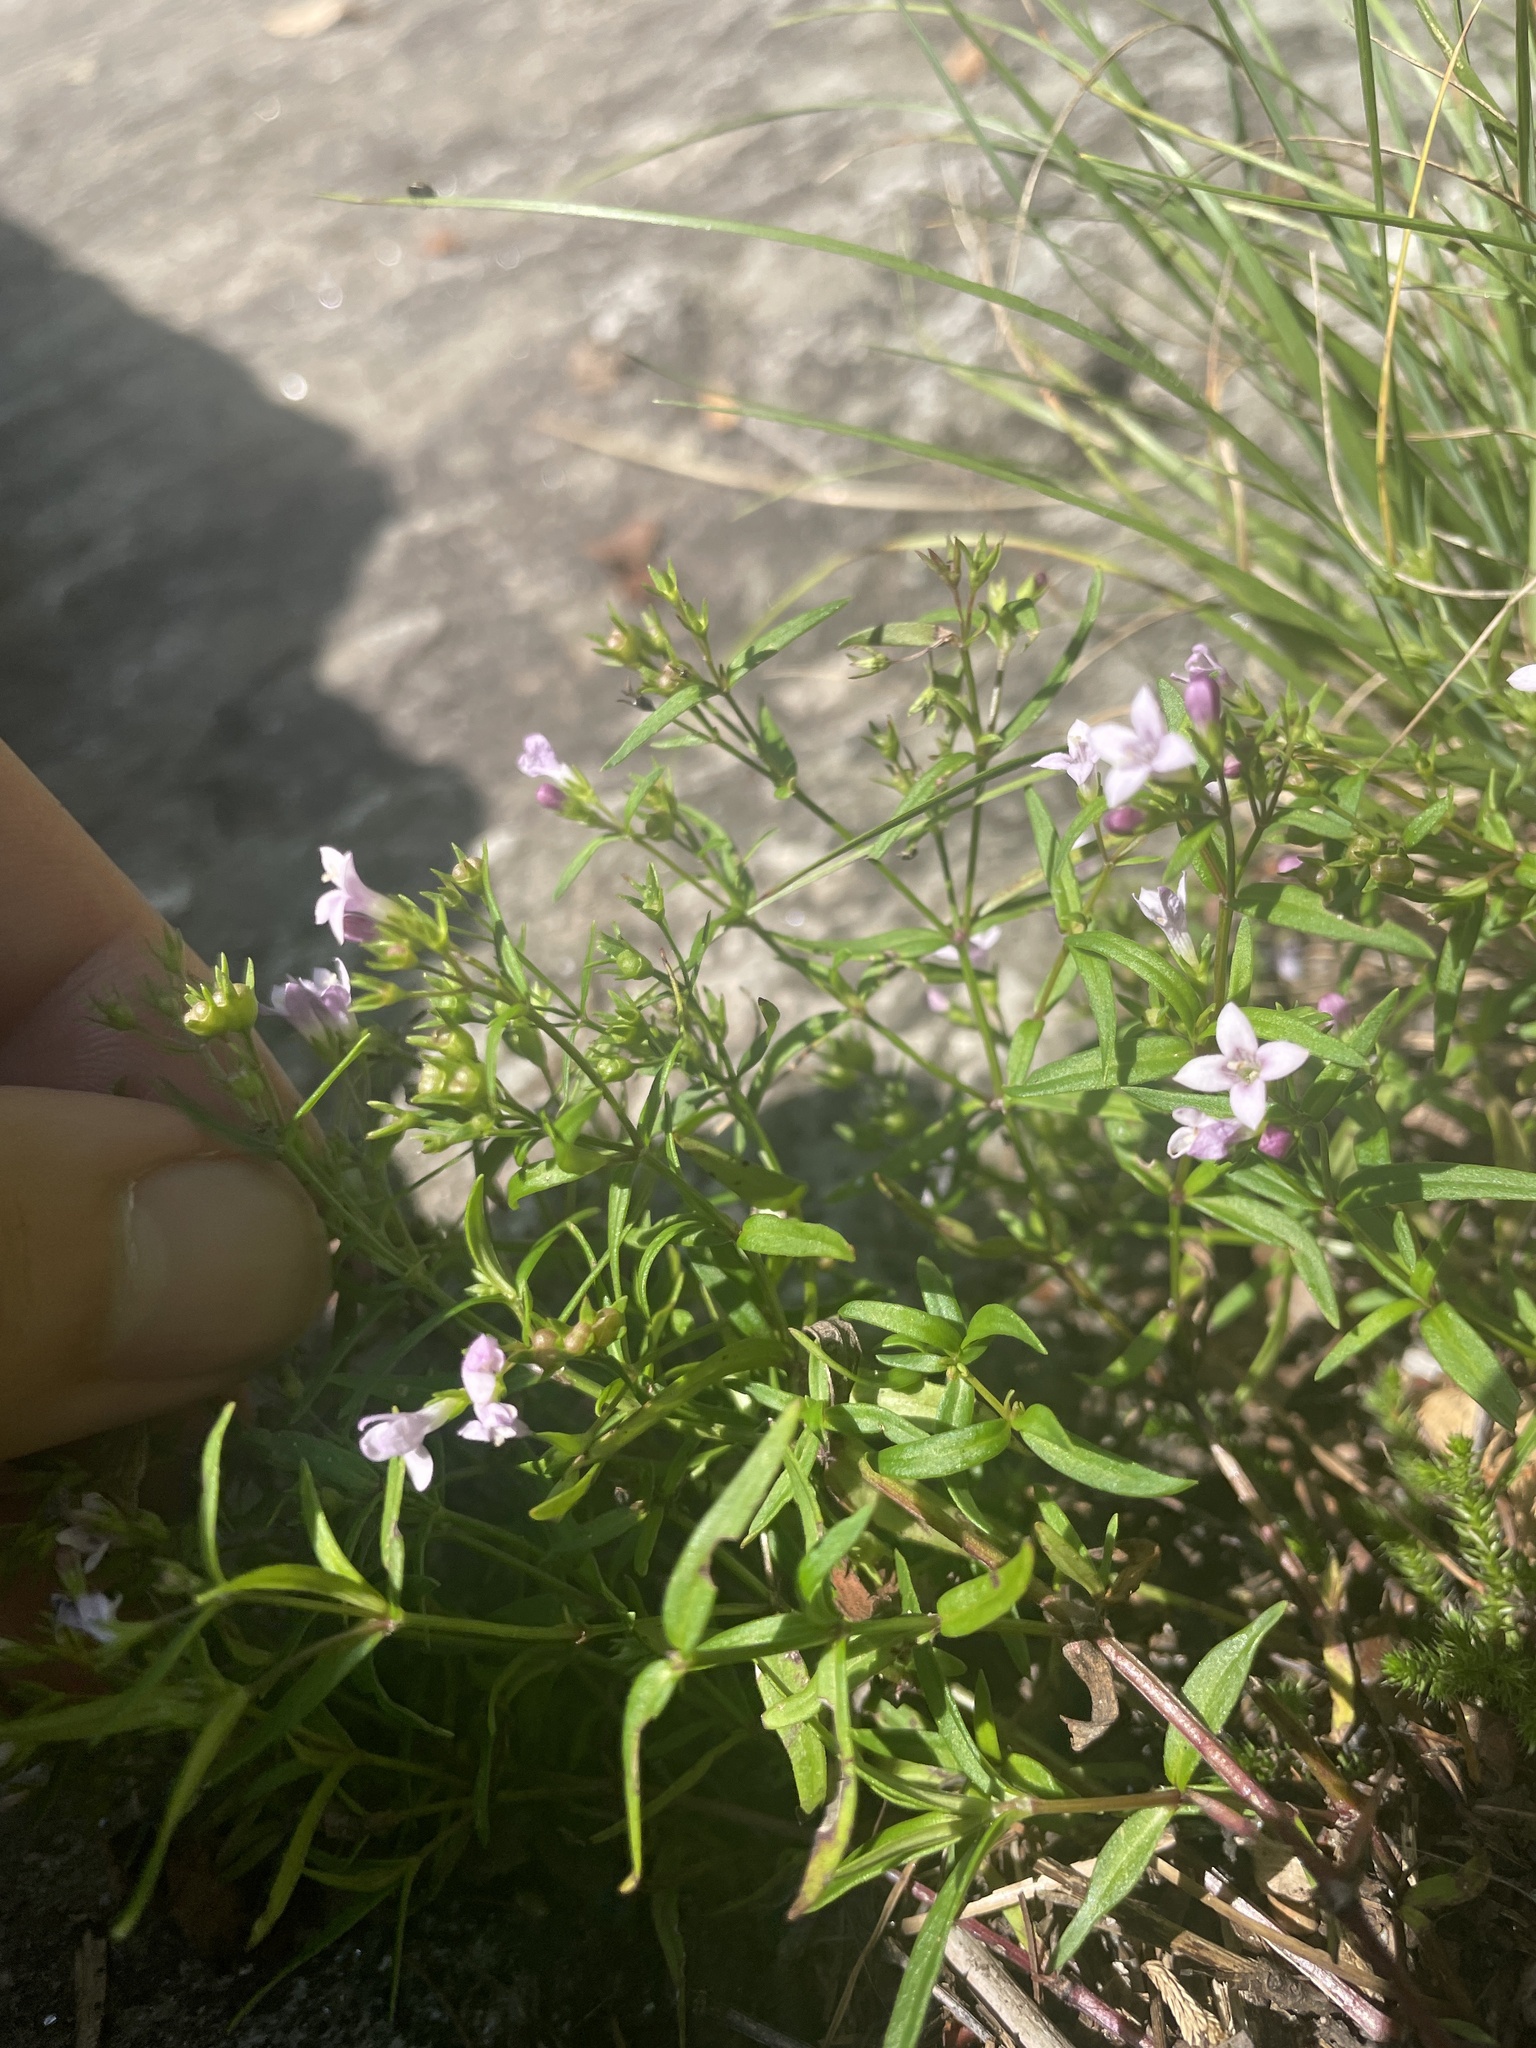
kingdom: Plantae
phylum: Tracheophyta
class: Magnoliopsida
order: Gentianales
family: Rubiaceae
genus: Houstonia
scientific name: Houstonia longifolia
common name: Long-leaved bluets
